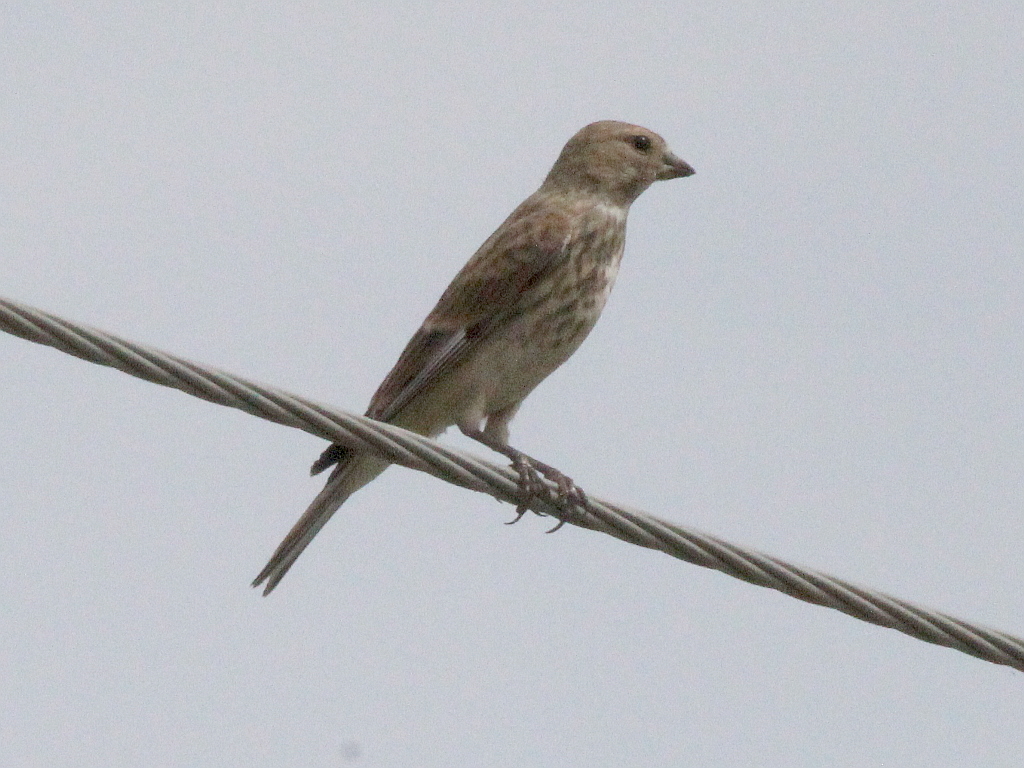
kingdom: Animalia
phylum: Chordata
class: Aves
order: Passeriformes
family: Fringillidae
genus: Linaria
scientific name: Linaria cannabina
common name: Common linnet
